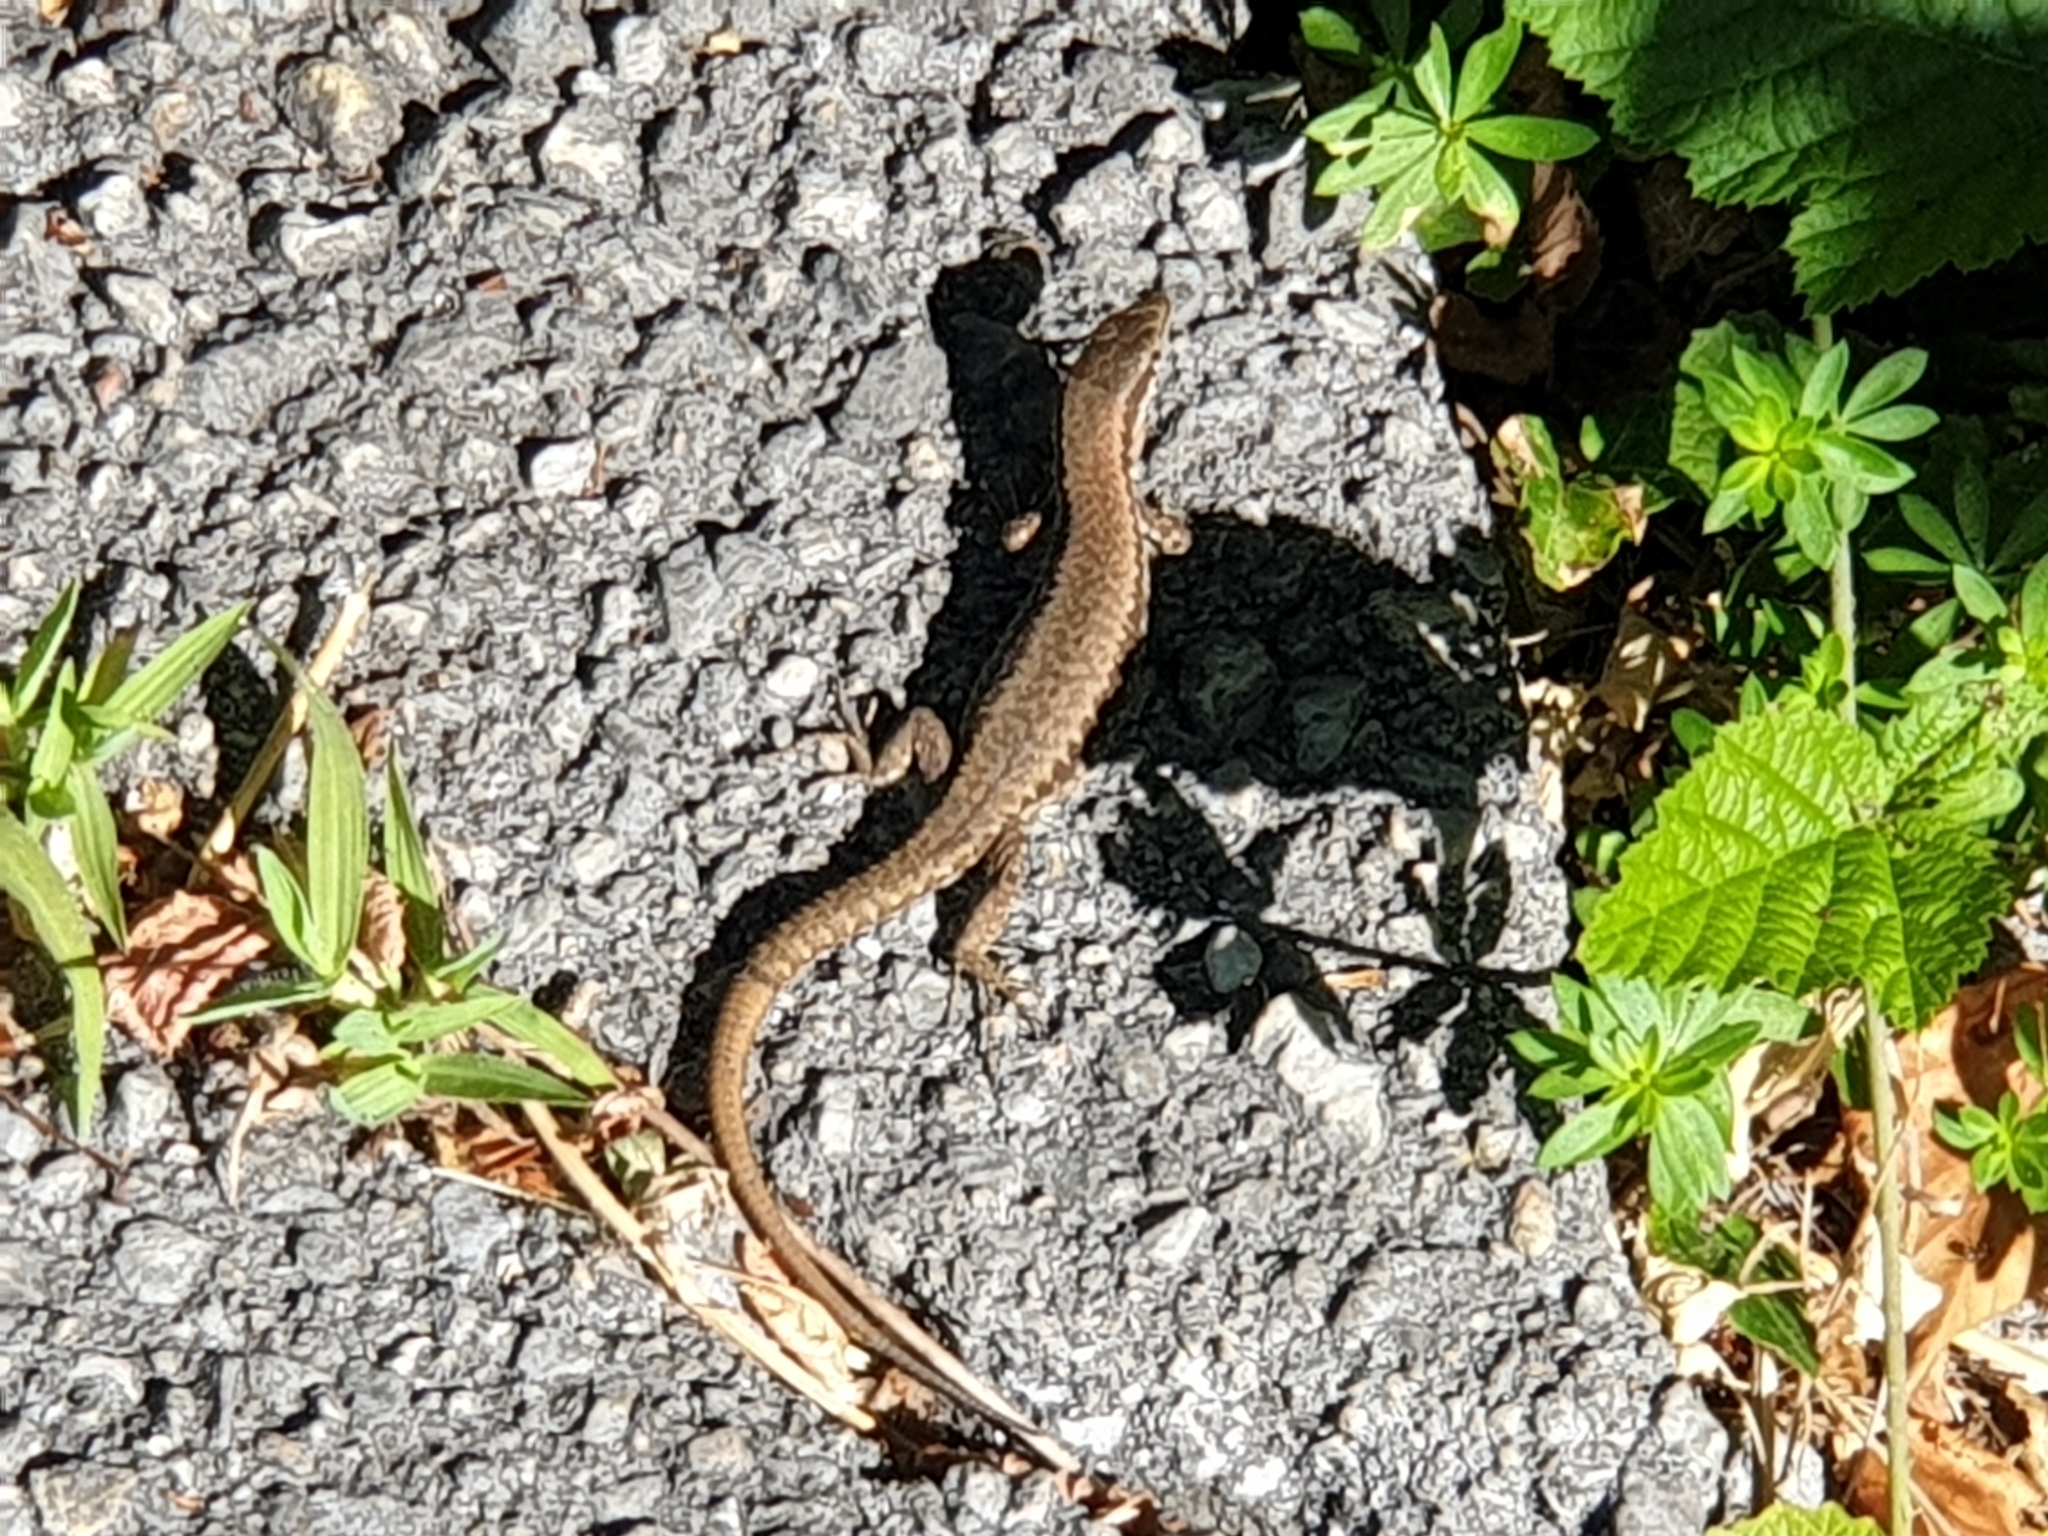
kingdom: Animalia
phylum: Chordata
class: Squamata
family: Lacertidae
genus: Podarcis
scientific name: Podarcis muralis
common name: Common wall lizard
